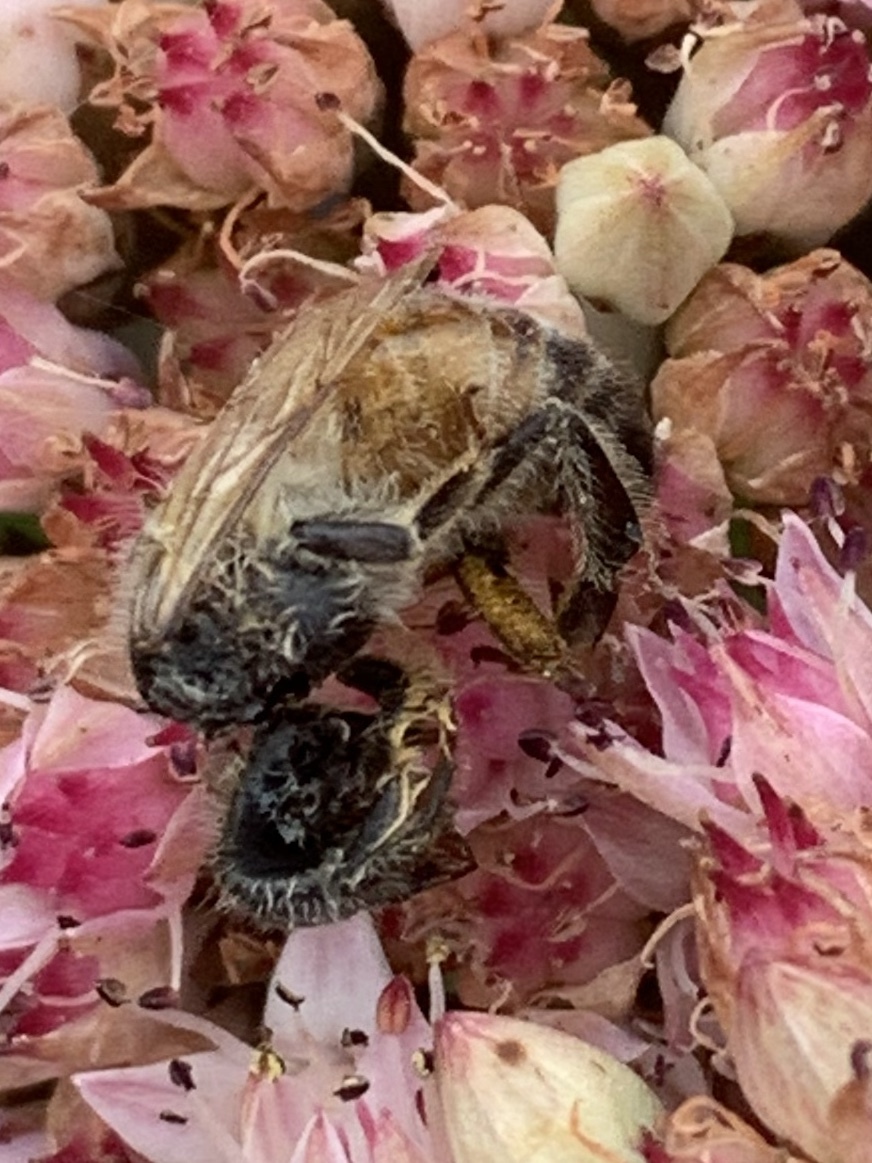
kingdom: Animalia
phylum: Arthropoda
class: Insecta
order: Hymenoptera
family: Apidae
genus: Apis
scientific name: Apis mellifera
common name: Honey bee
